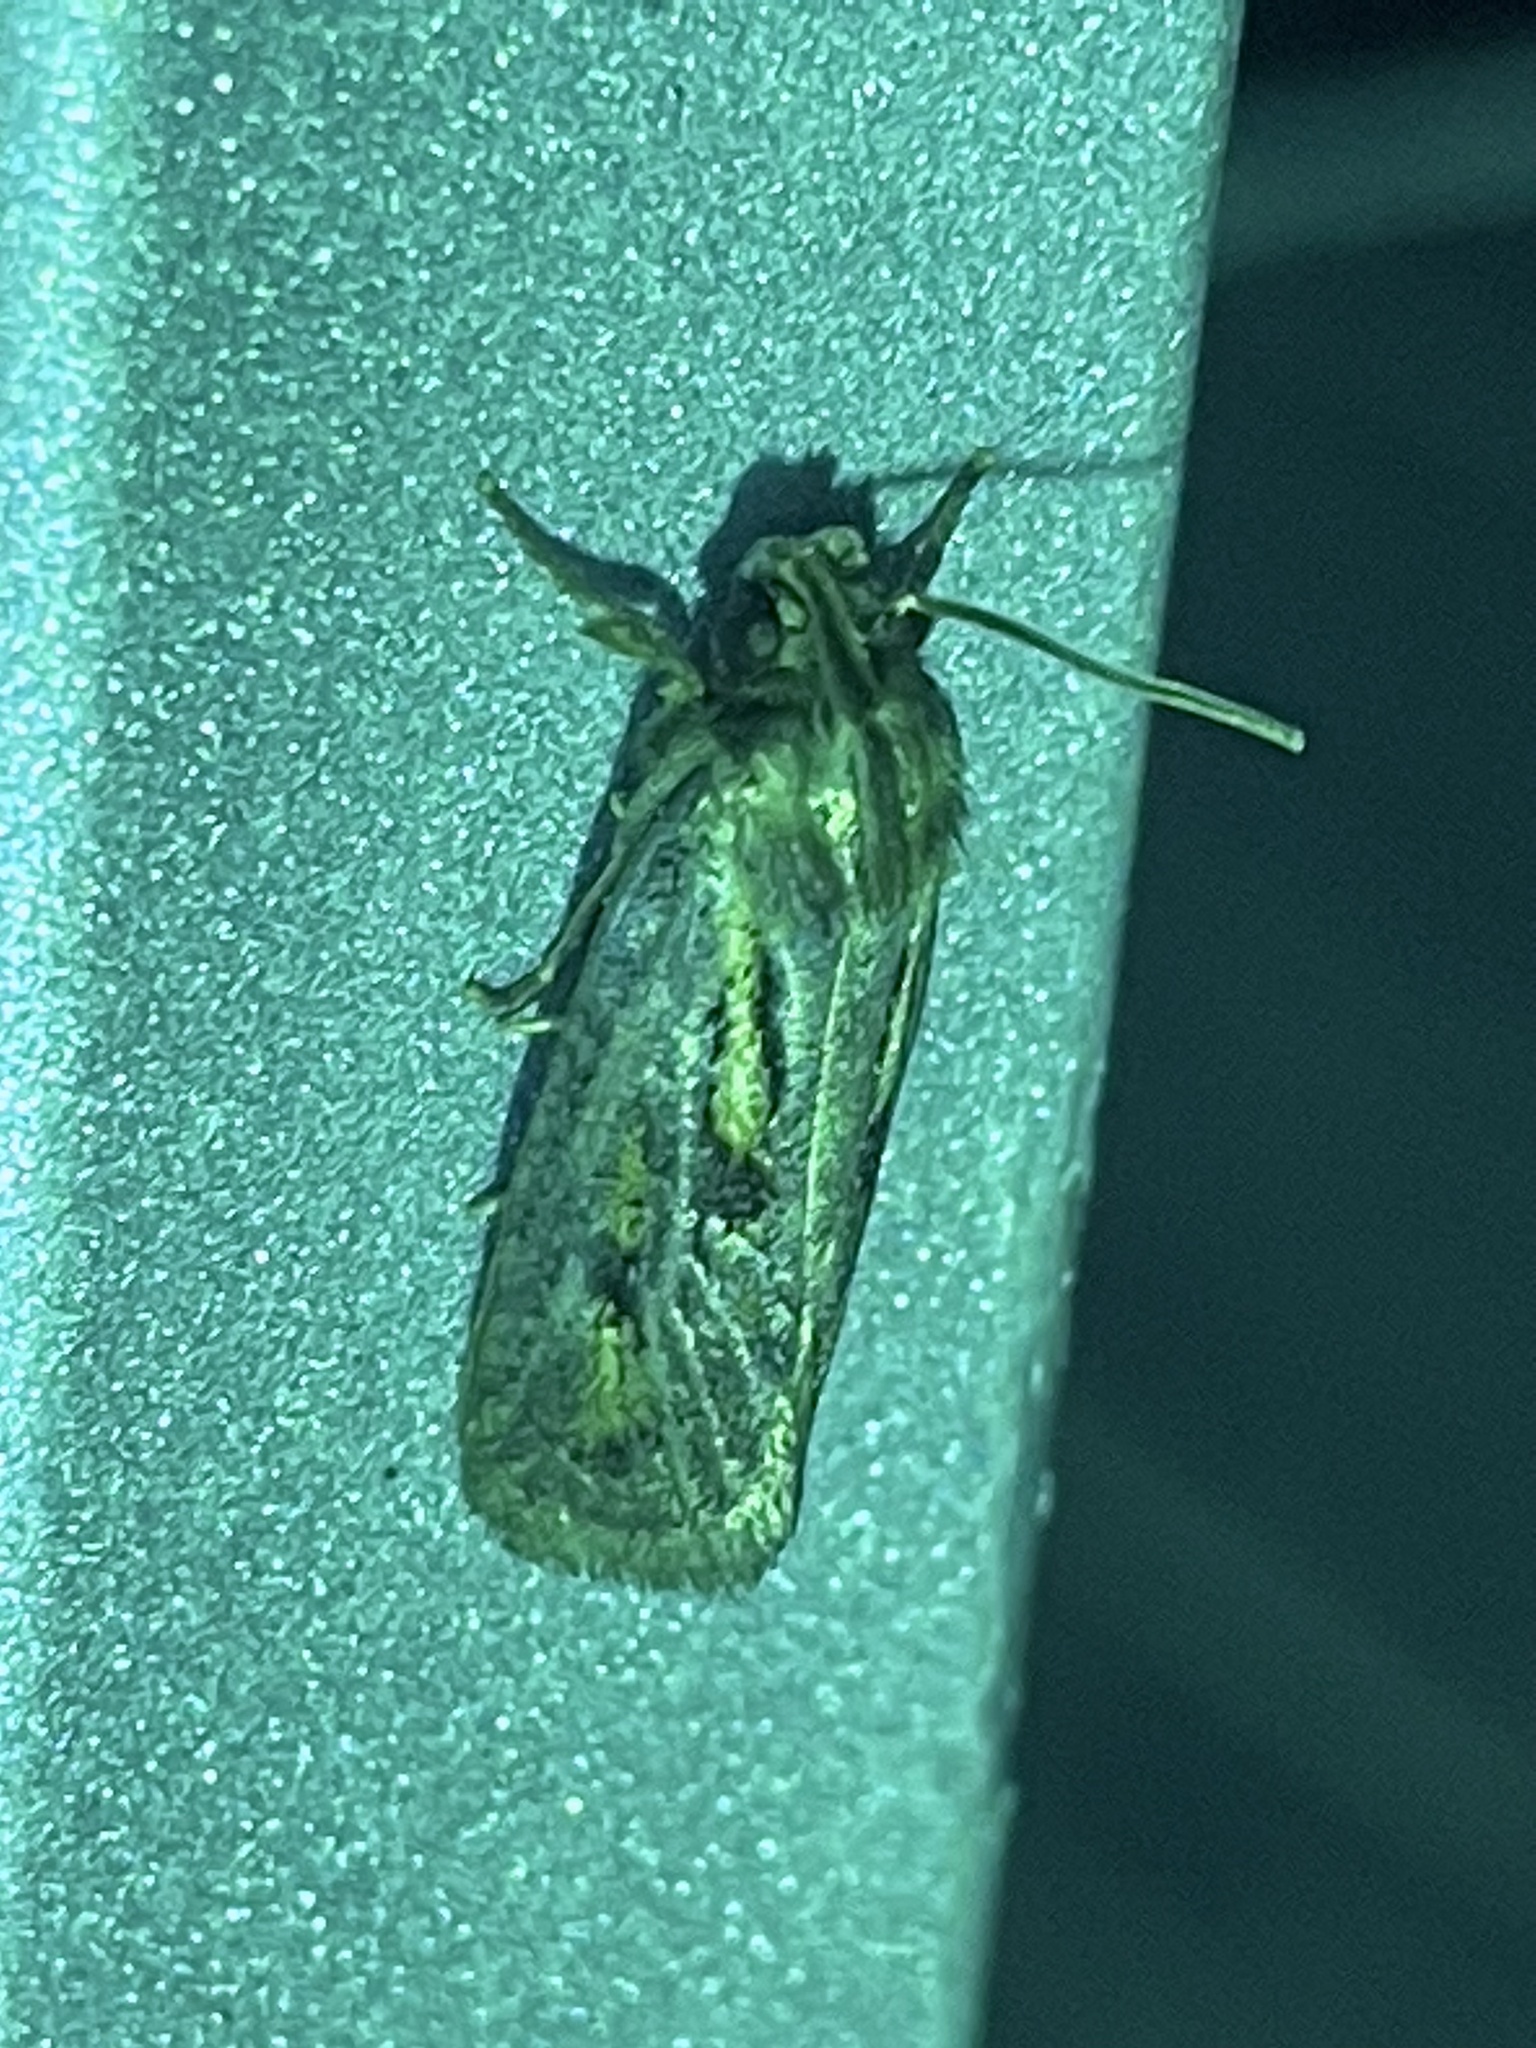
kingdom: Animalia
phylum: Arthropoda
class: Insecta
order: Lepidoptera
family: Tineidae
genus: Acrolophus
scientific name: Acrolophus popeanella
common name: Clemens' grass tubeworm moth
